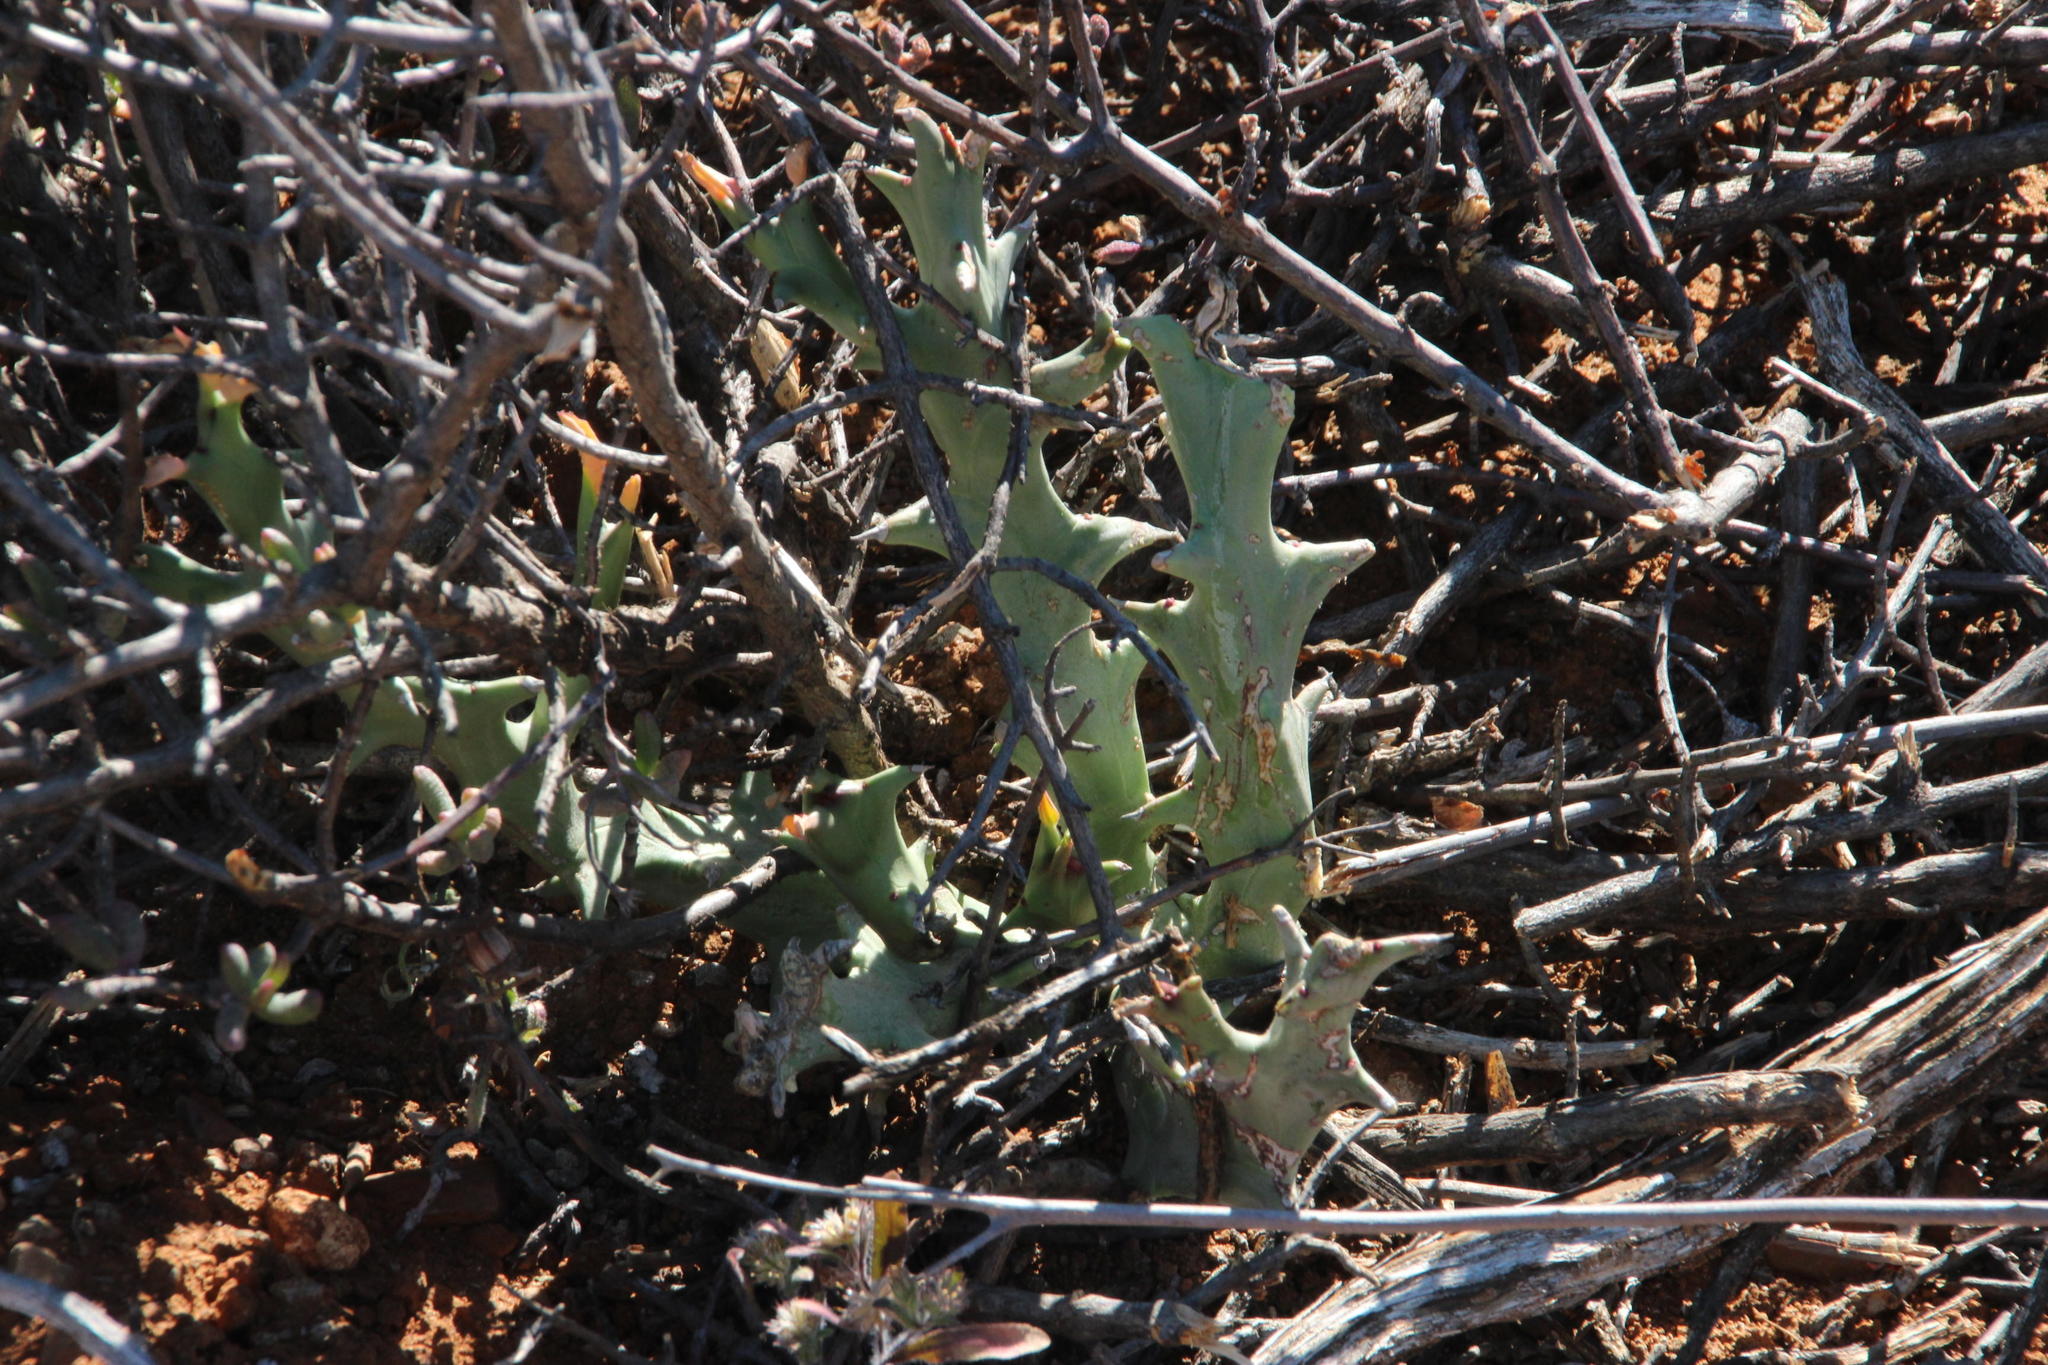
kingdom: Plantae
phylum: Tracheophyta
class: Magnoliopsida
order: Malpighiales
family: Euphorbiaceae
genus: Euphorbia
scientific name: Euphorbia hamata
